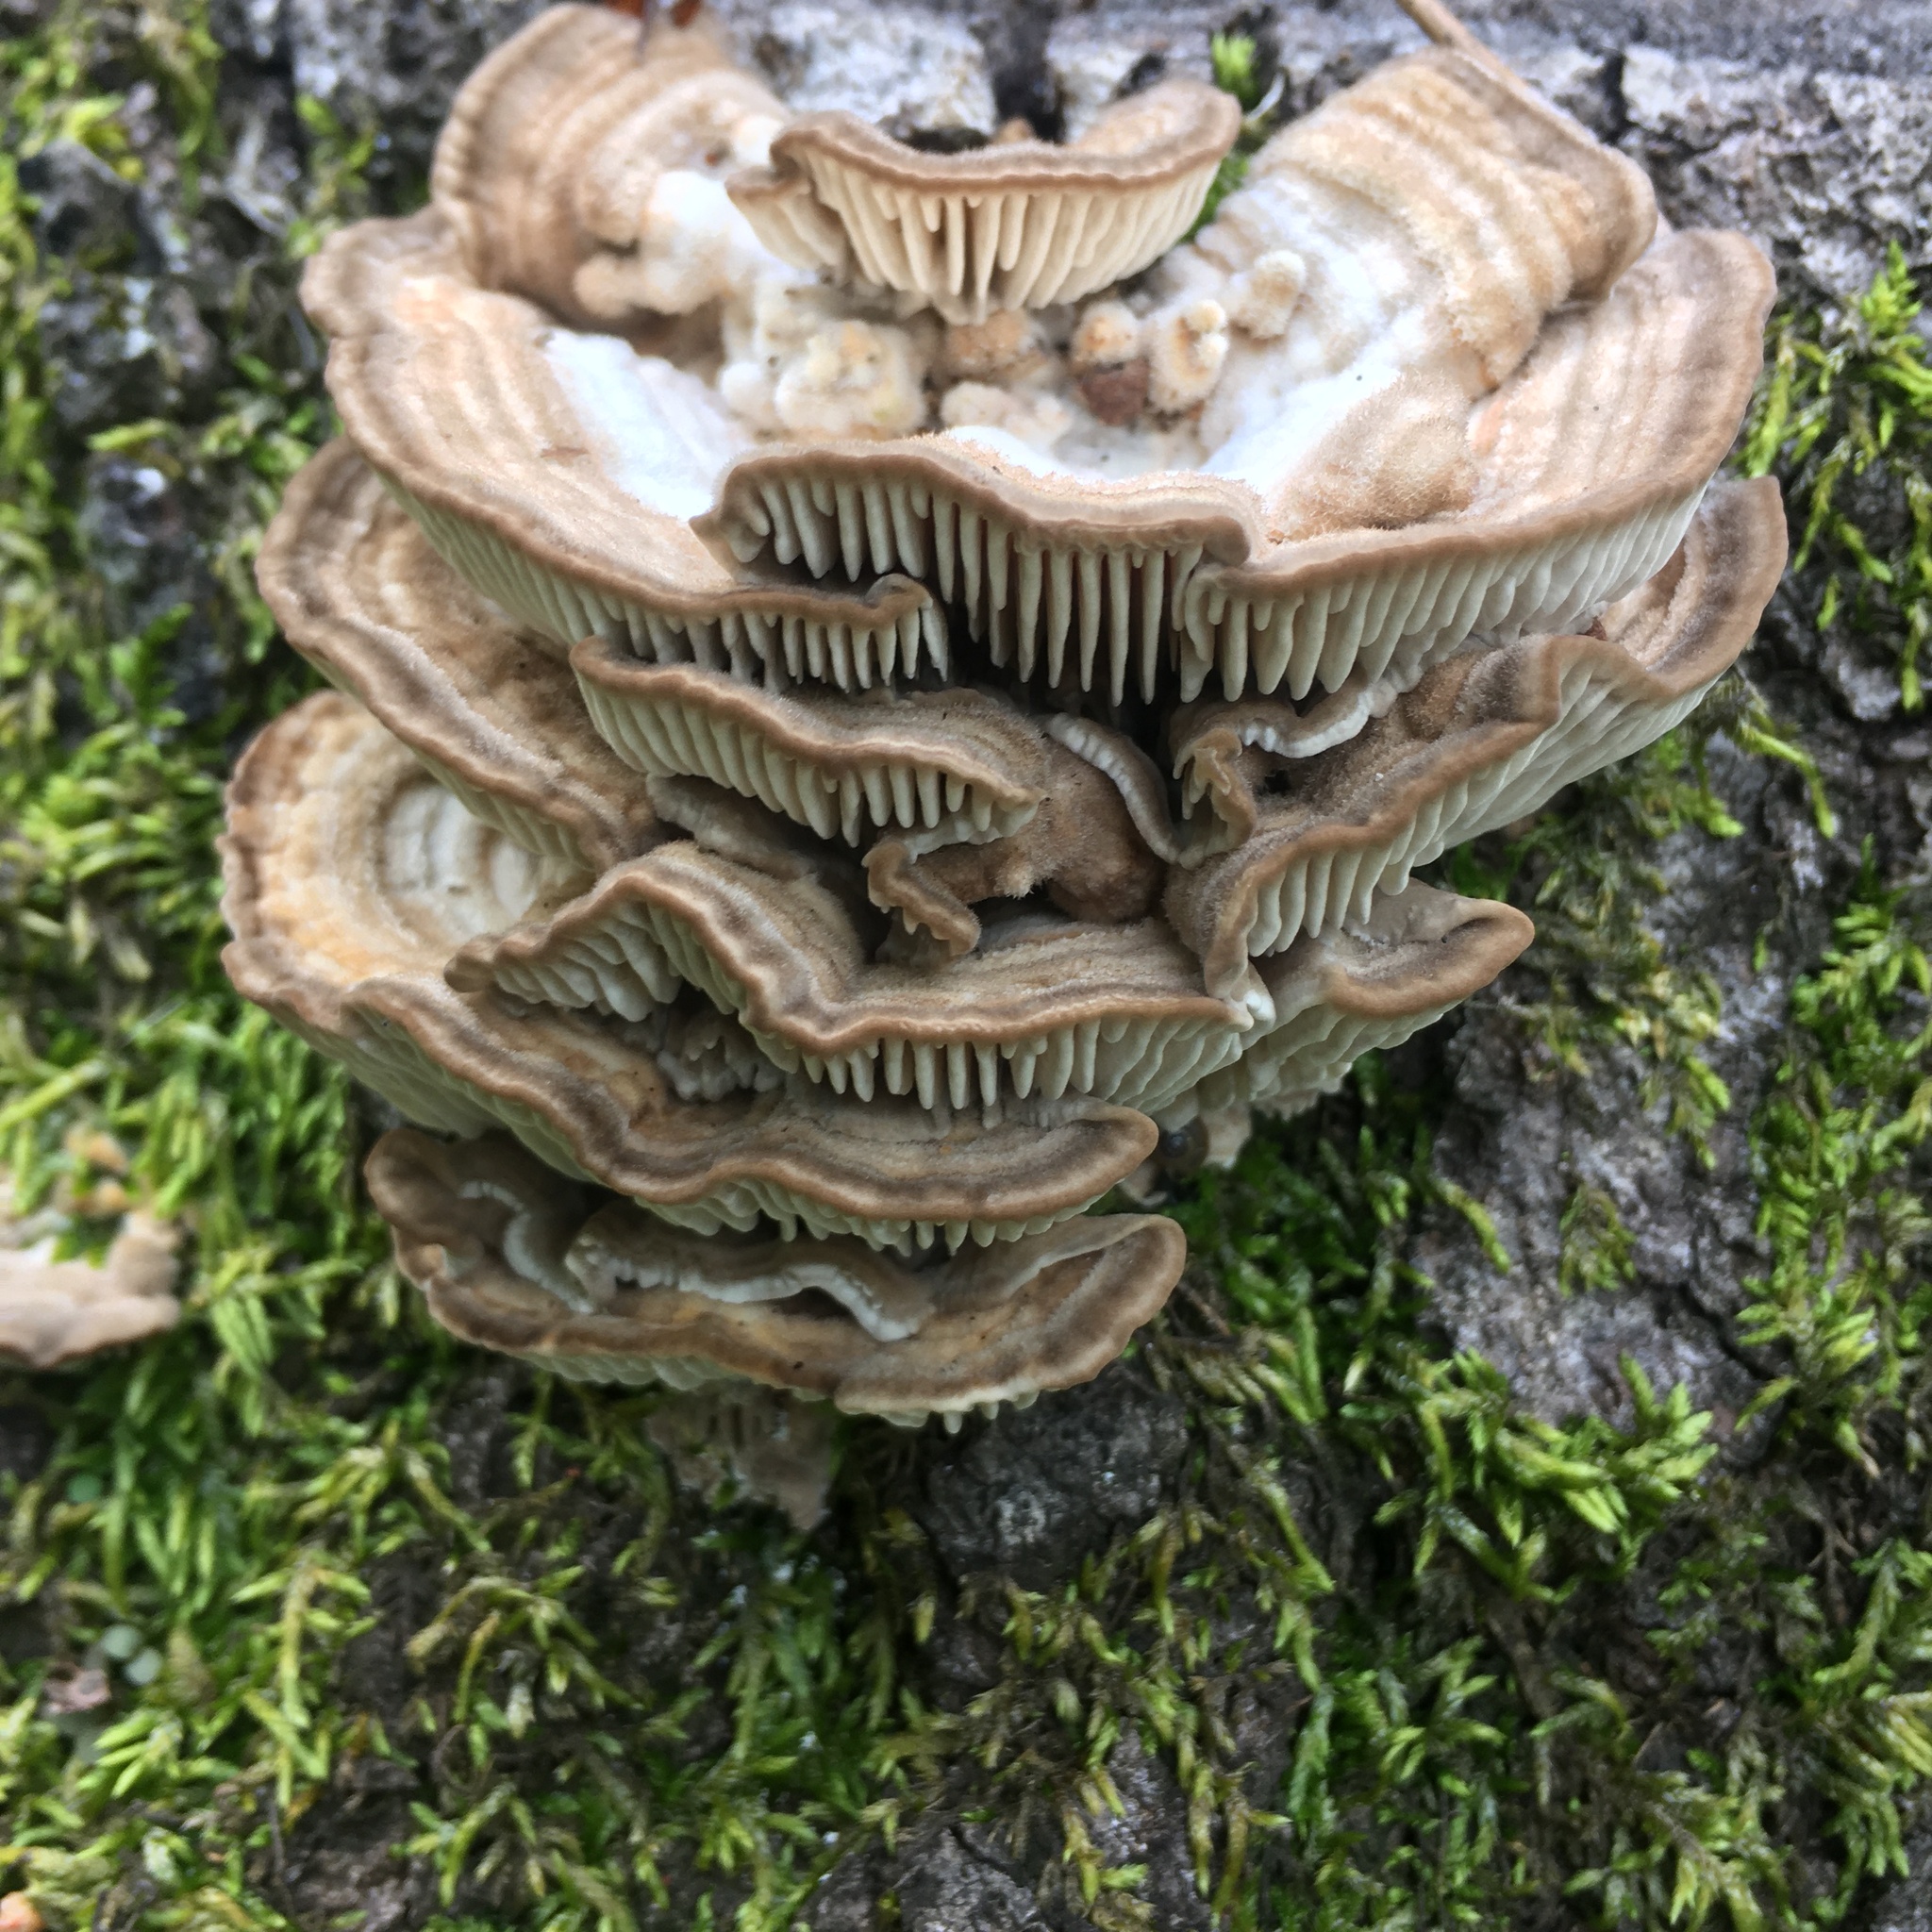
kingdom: Fungi
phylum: Basidiomycota
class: Agaricomycetes
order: Polyporales
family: Fomitopsidaceae
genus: Fomitopsis
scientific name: Fomitopsis
